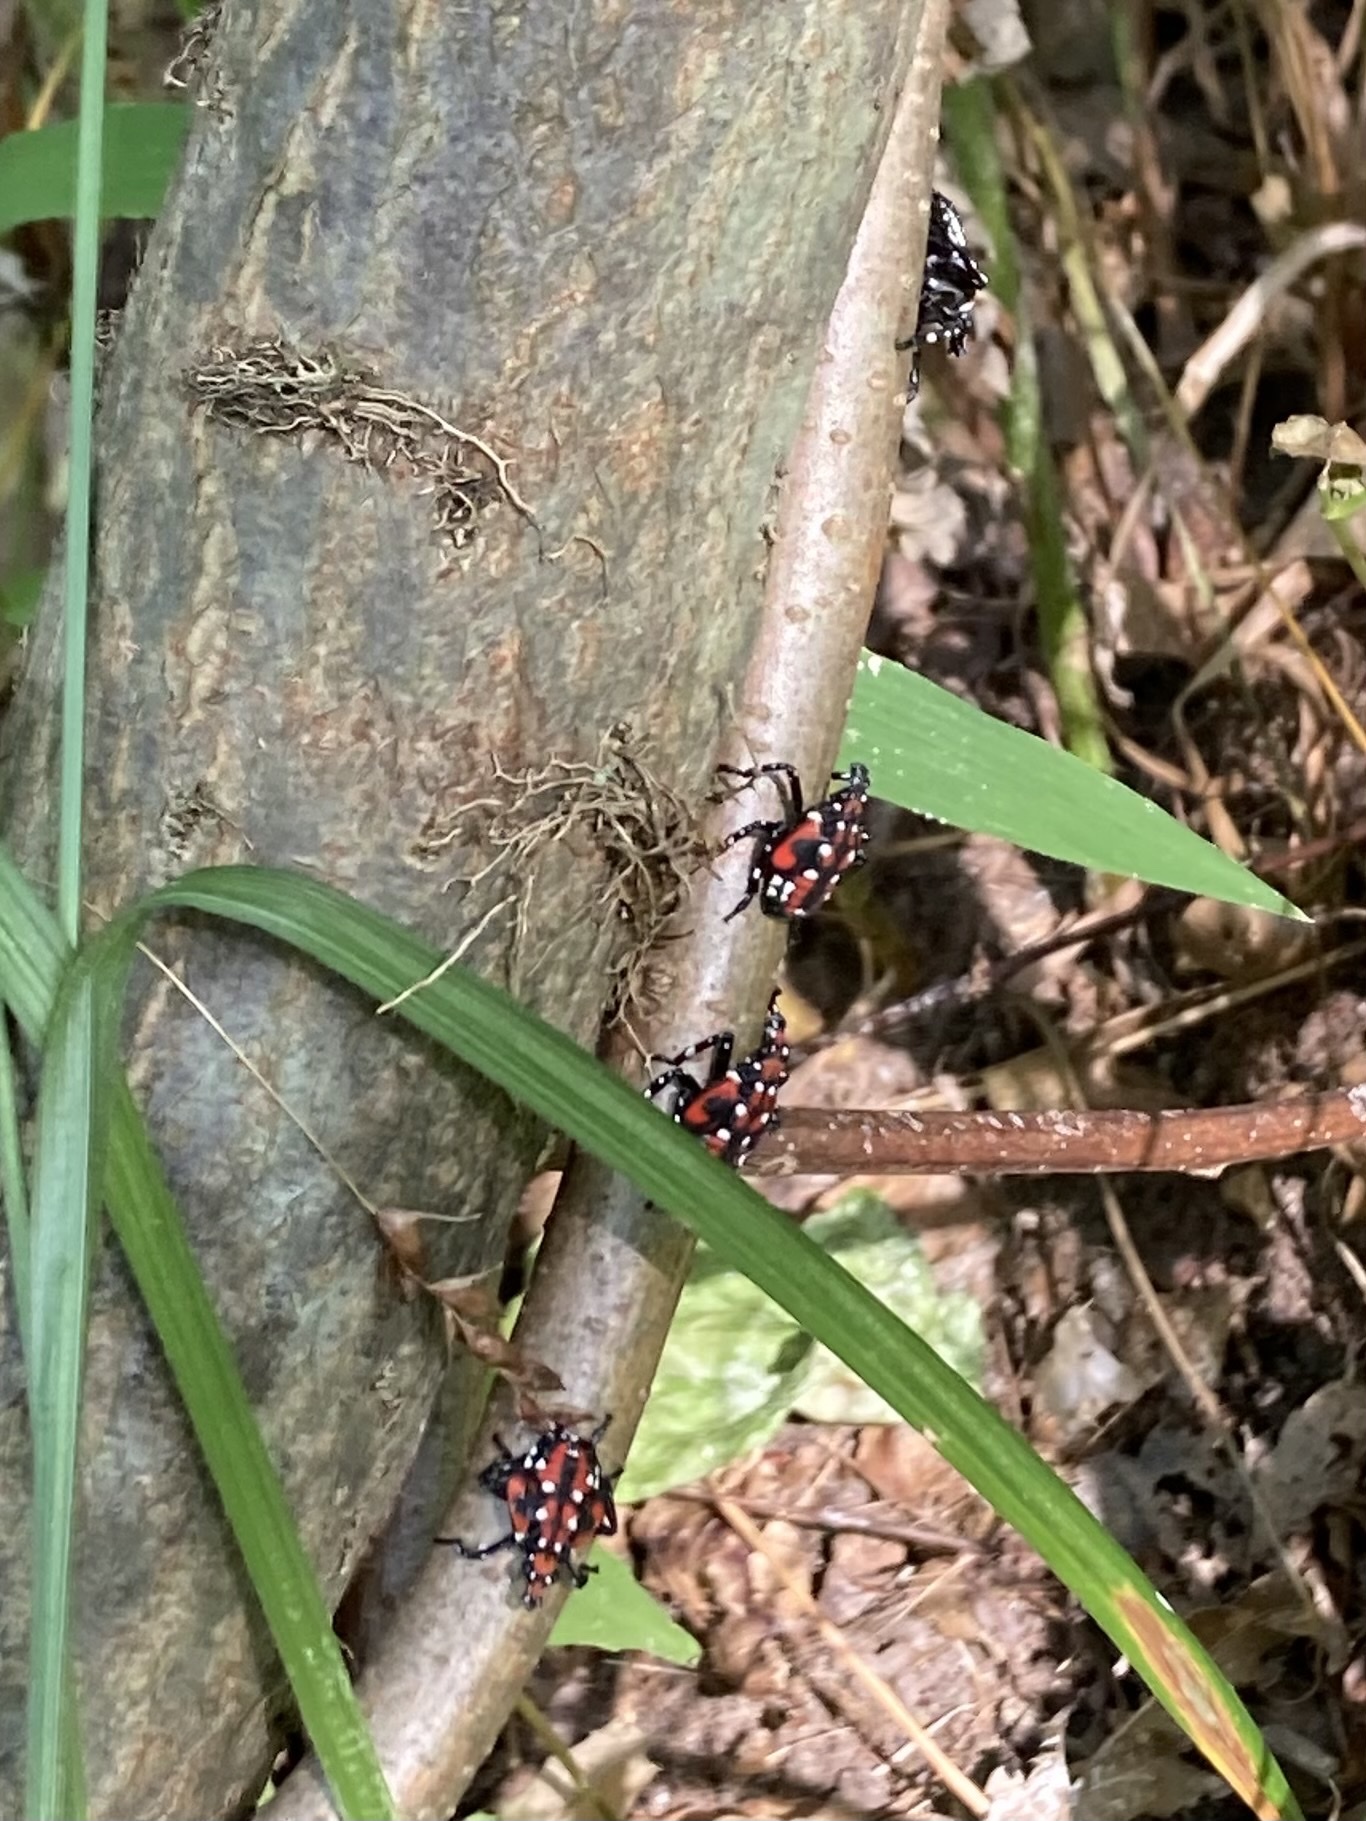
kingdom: Animalia
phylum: Arthropoda
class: Insecta
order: Hemiptera
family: Fulgoridae
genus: Lycorma
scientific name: Lycorma delicatula
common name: Spotted lanternfly
